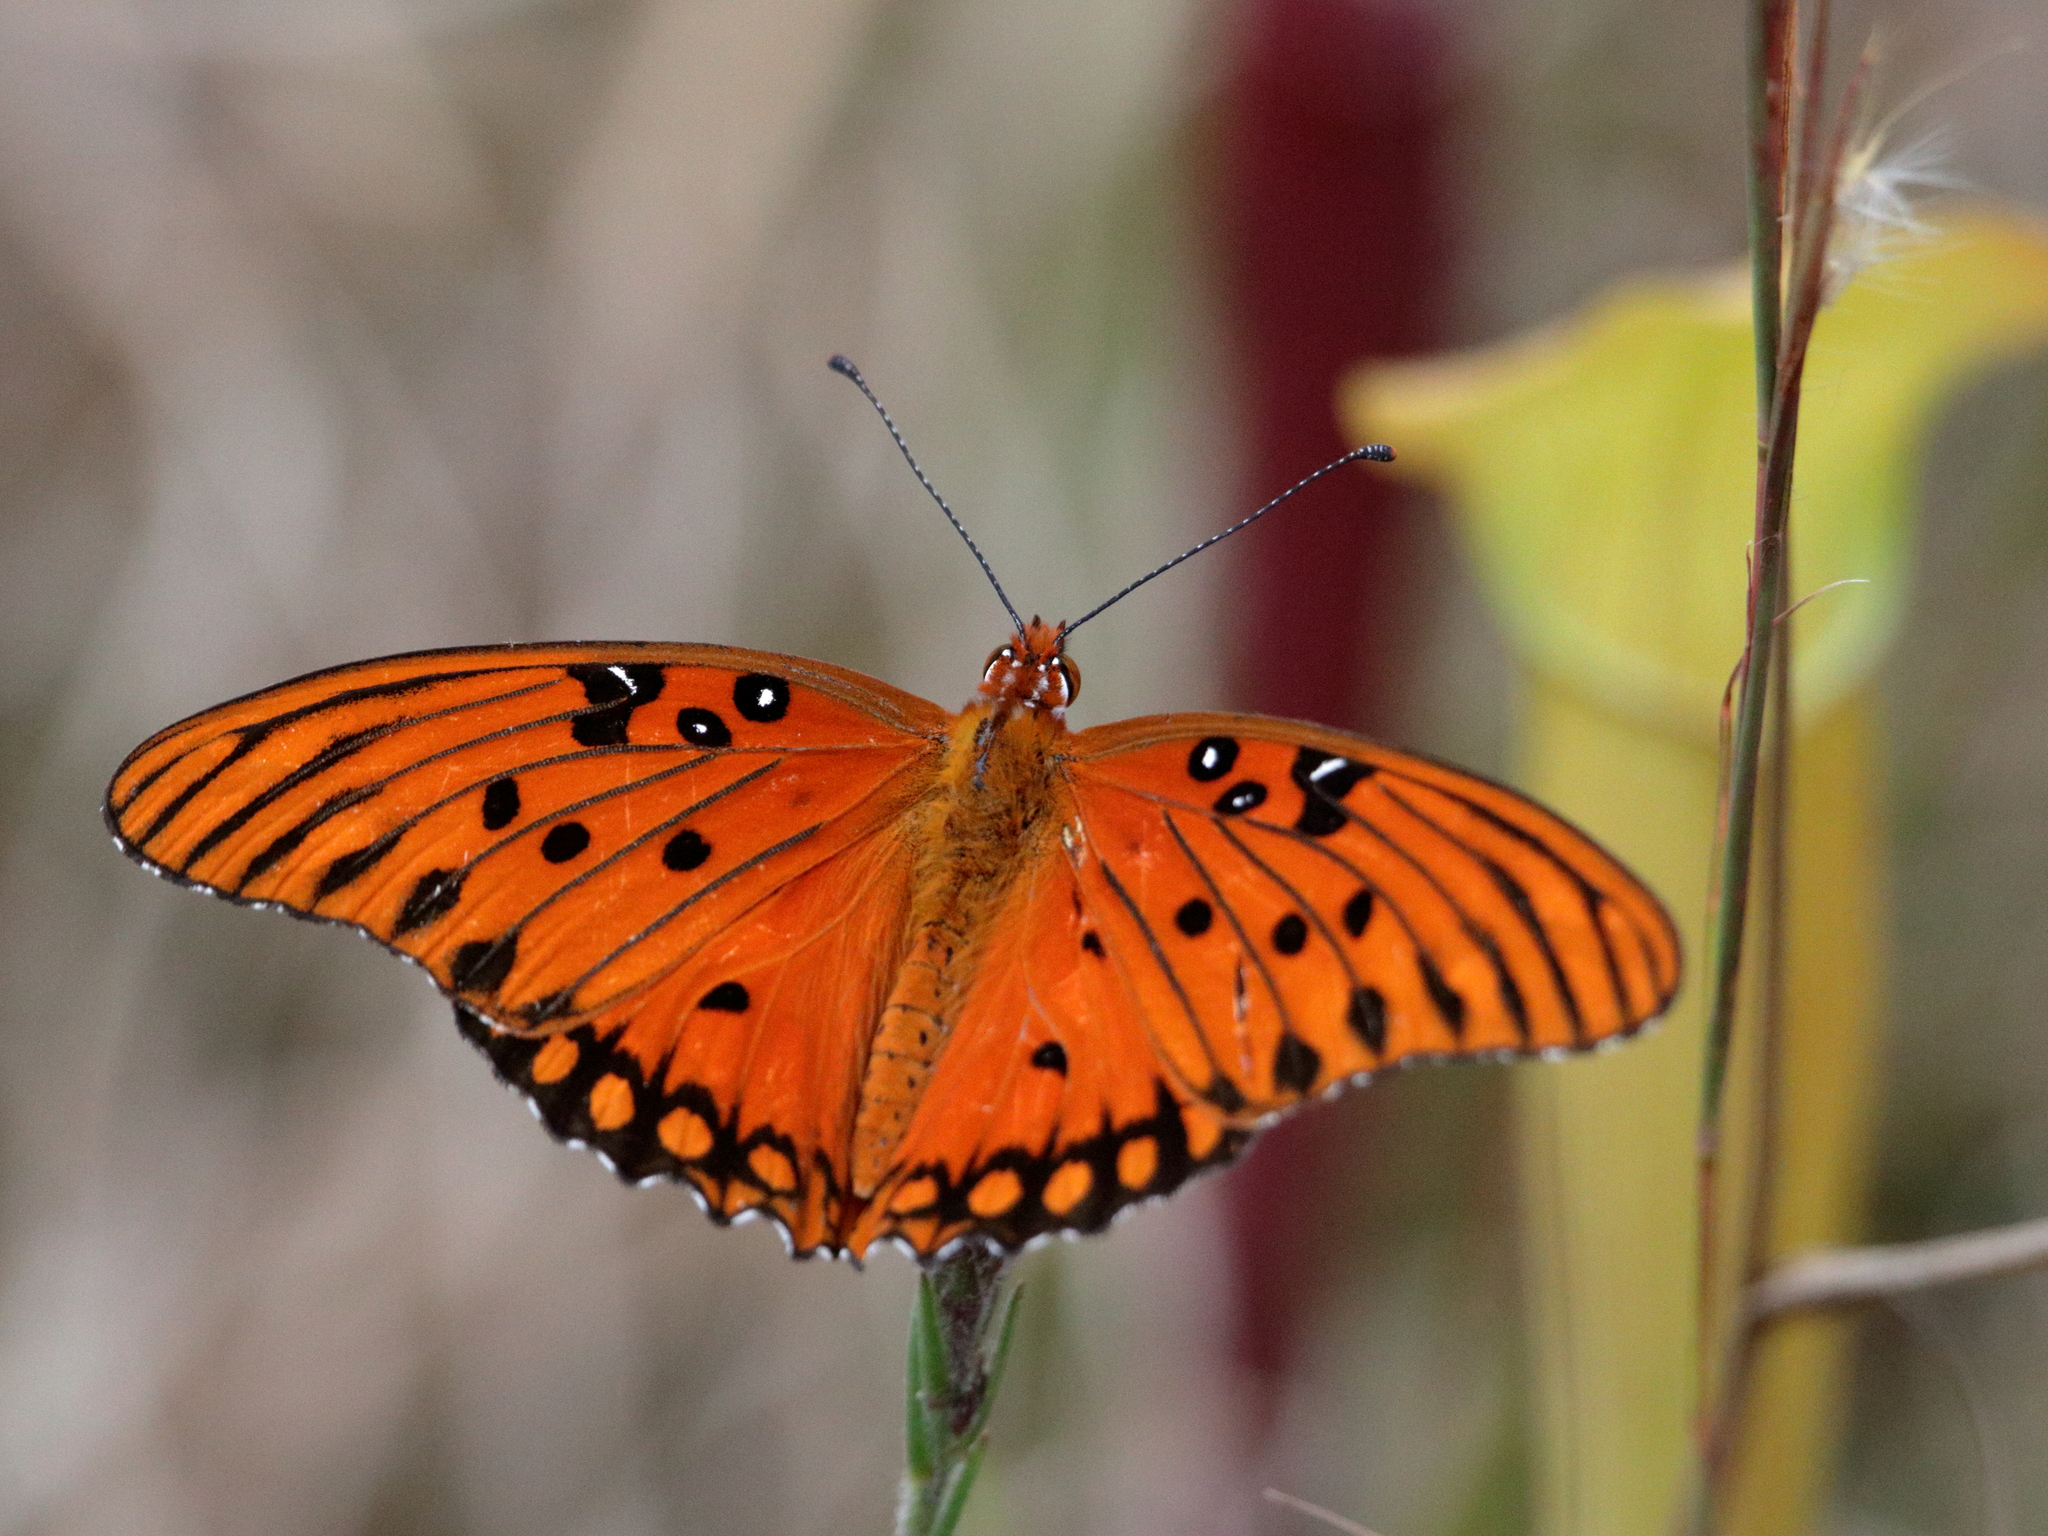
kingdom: Animalia
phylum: Arthropoda
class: Insecta
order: Lepidoptera
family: Nymphalidae
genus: Dione
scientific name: Dione vanillae
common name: Gulf fritillary
